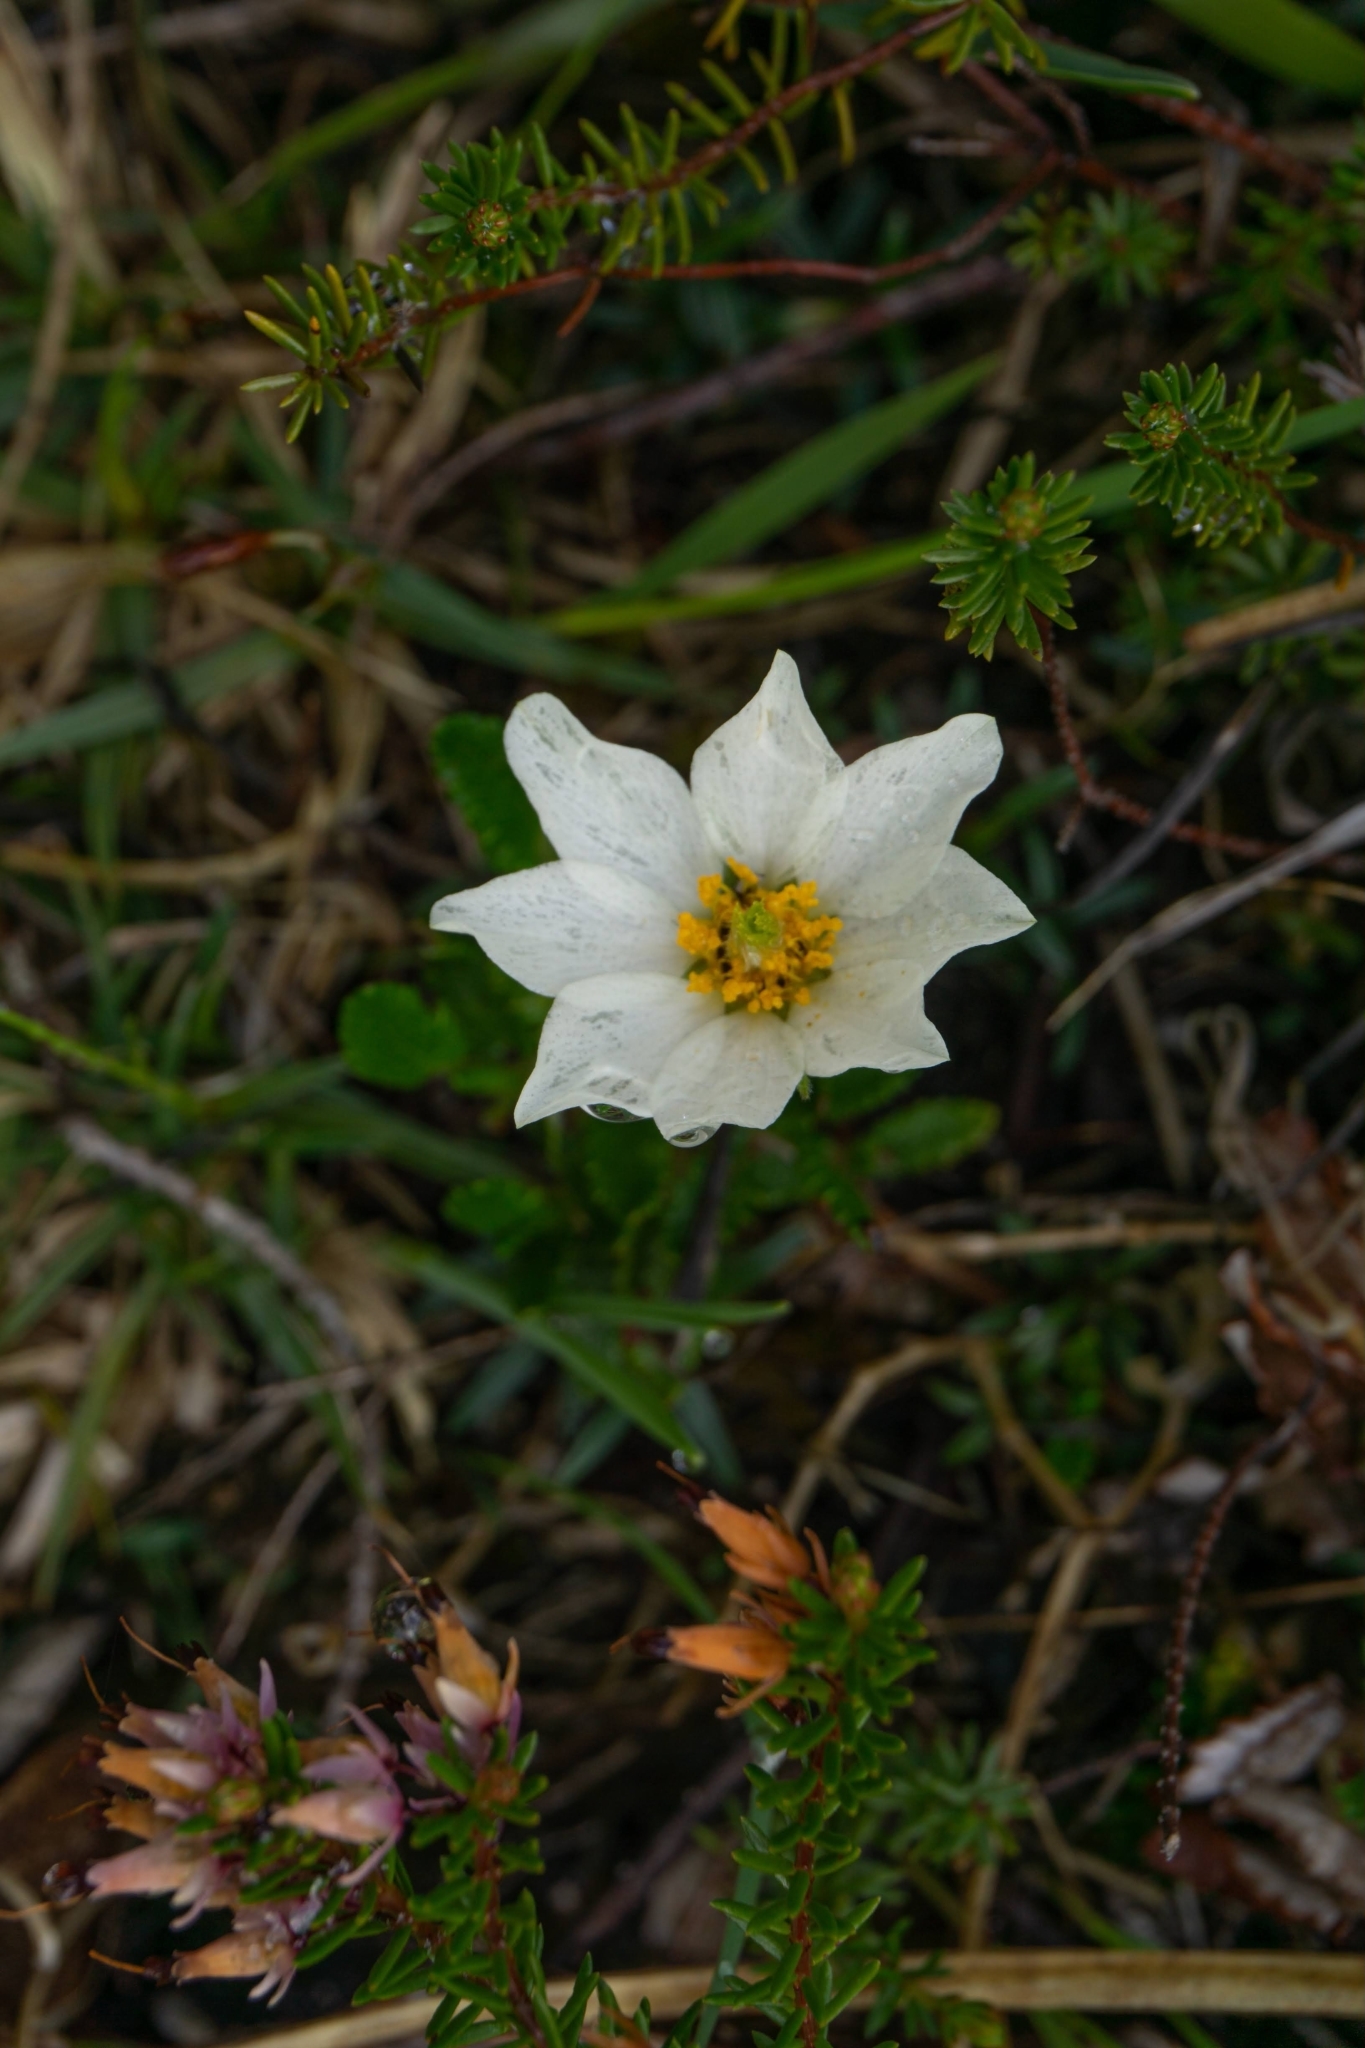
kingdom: Plantae
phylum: Tracheophyta
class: Magnoliopsida
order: Rosales
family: Rosaceae
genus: Dryas
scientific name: Dryas octopetala
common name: Eight-petal mountain-avens
